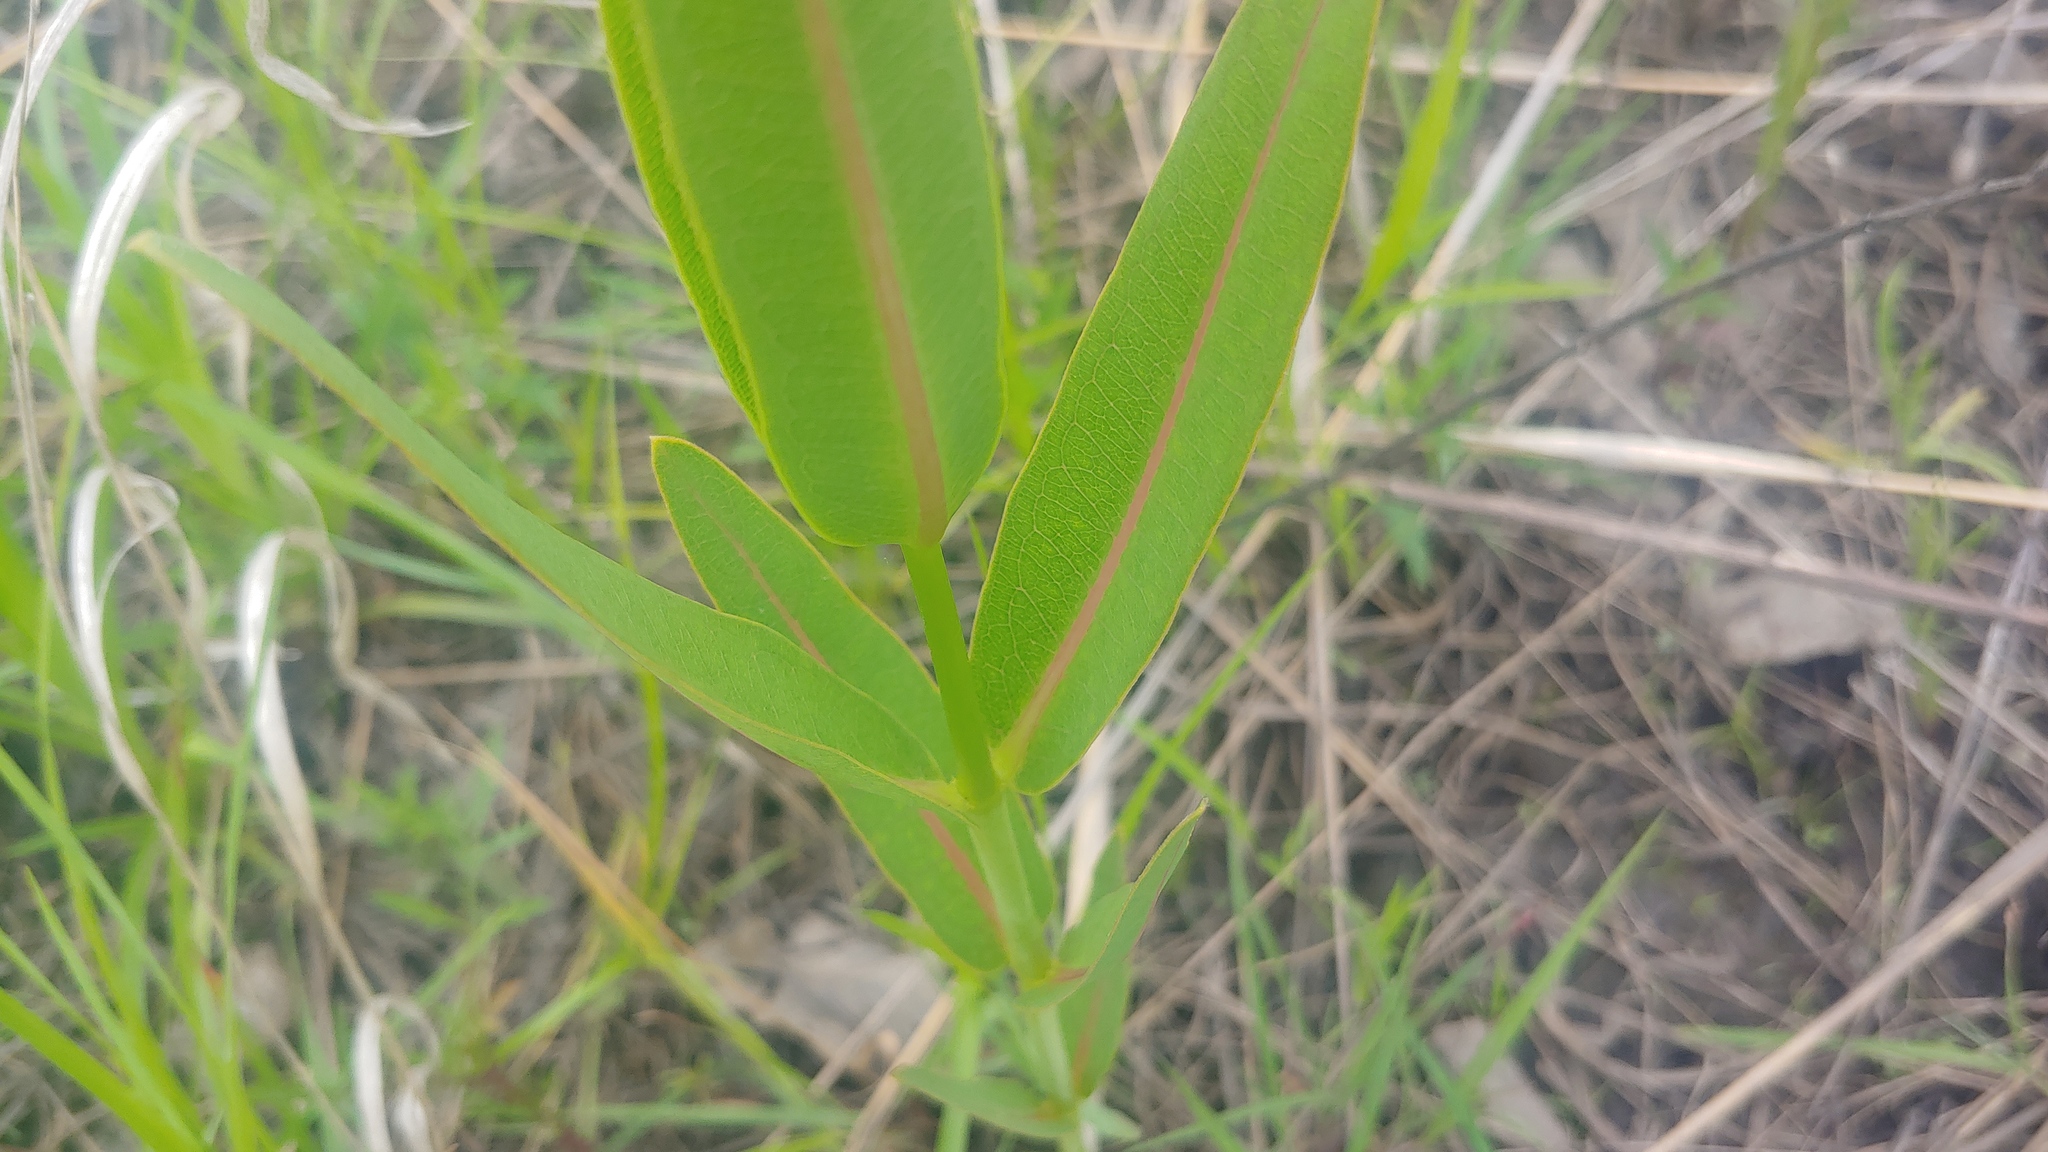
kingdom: Plantae
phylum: Tracheophyta
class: Magnoliopsida
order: Gentianales
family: Apocynaceae
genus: Asclepias
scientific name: Asclepias sullivantii
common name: Prairie milkweed
